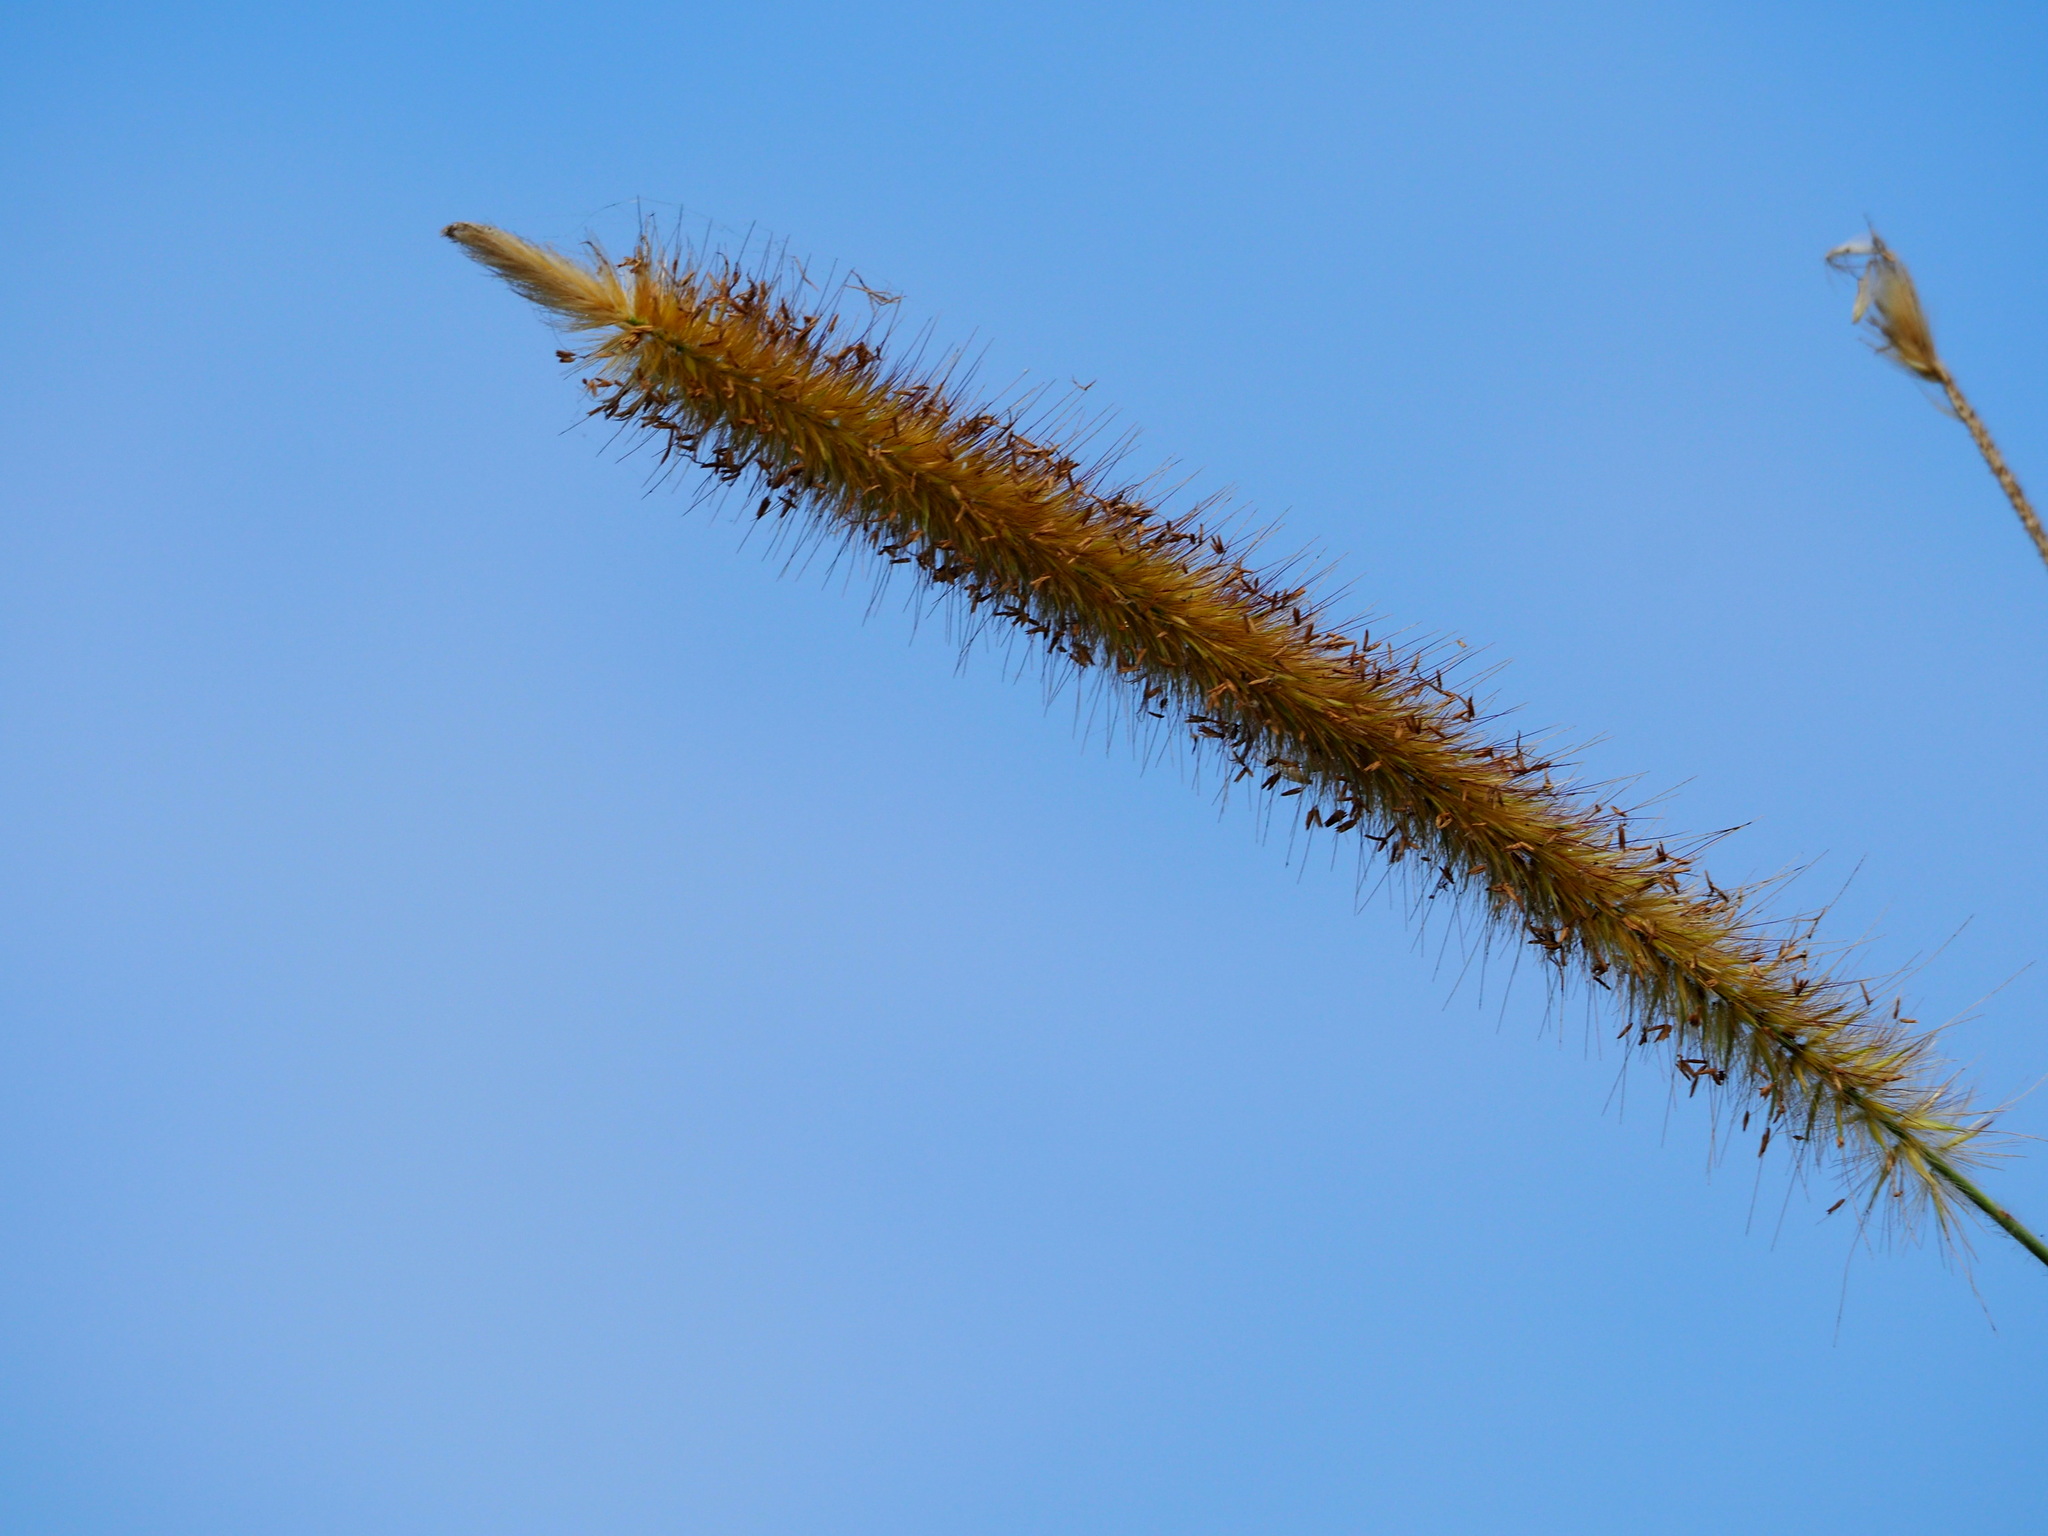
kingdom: Plantae
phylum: Tracheophyta
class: Liliopsida
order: Poales
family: Poaceae
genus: Cenchrus
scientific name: Cenchrus purpureus
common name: Elephant grass
